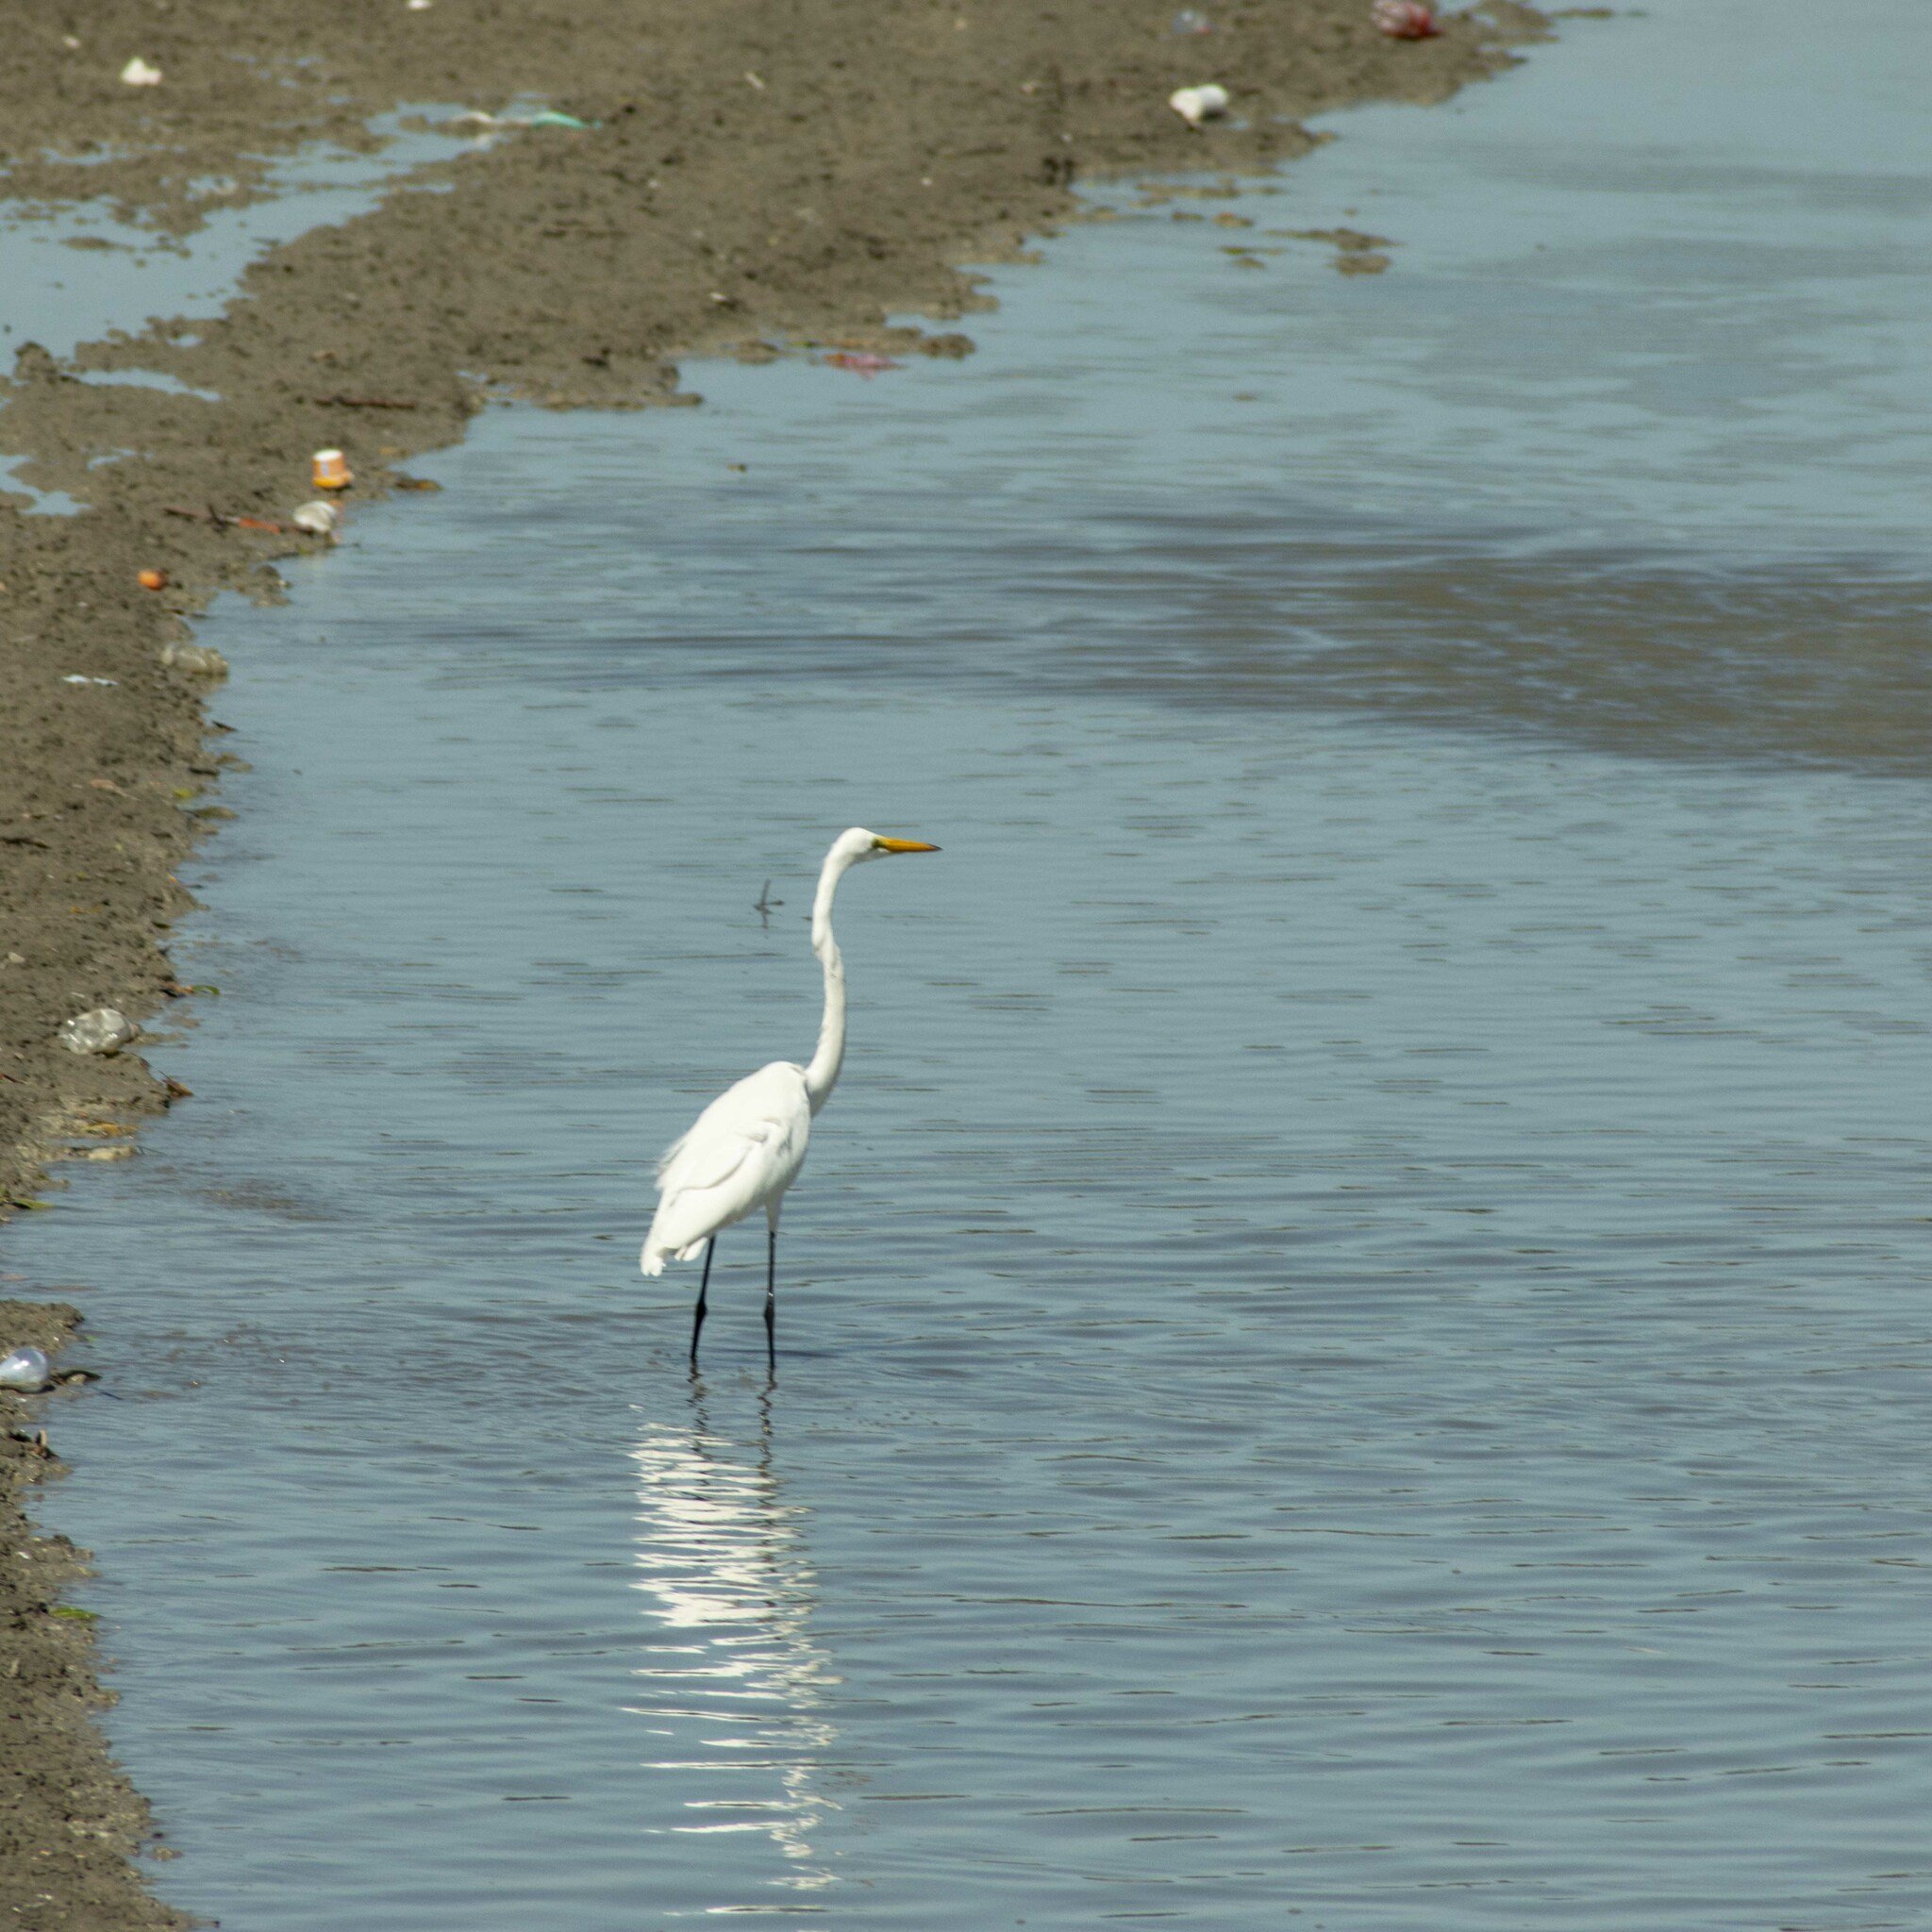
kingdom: Animalia
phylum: Chordata
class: Aves
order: Pelecaniformes
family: Ardeidae
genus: Ardea
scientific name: Ardea alba
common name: Great egret
